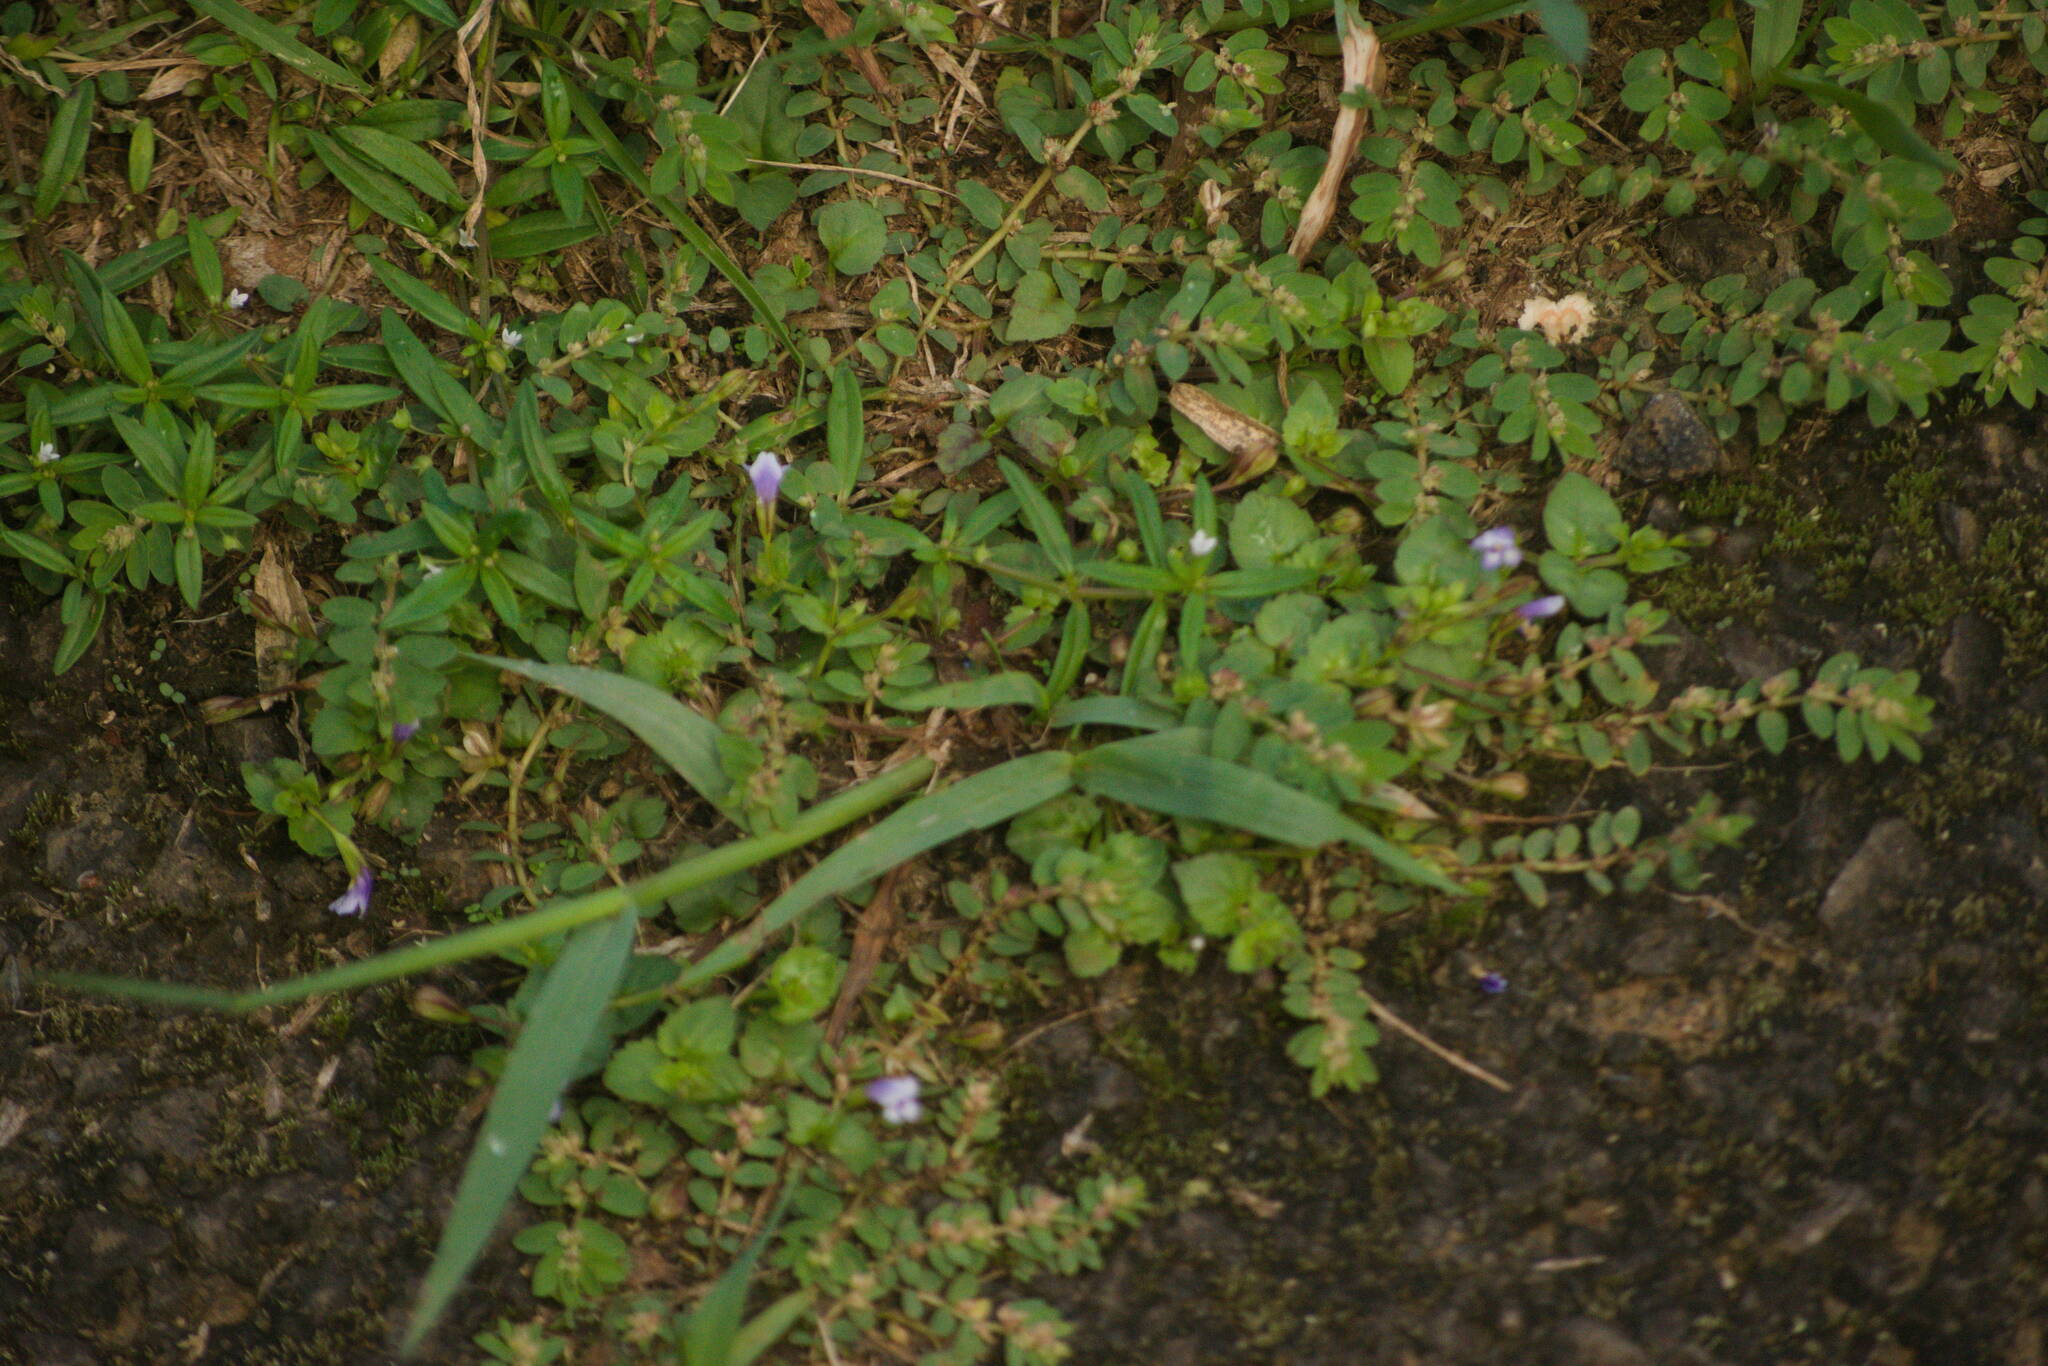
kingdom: Plantae
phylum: Tracheophyta
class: Magnoliopsida
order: Lamiales
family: Linderniaceae
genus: Torenia
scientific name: Torenia crustacea
